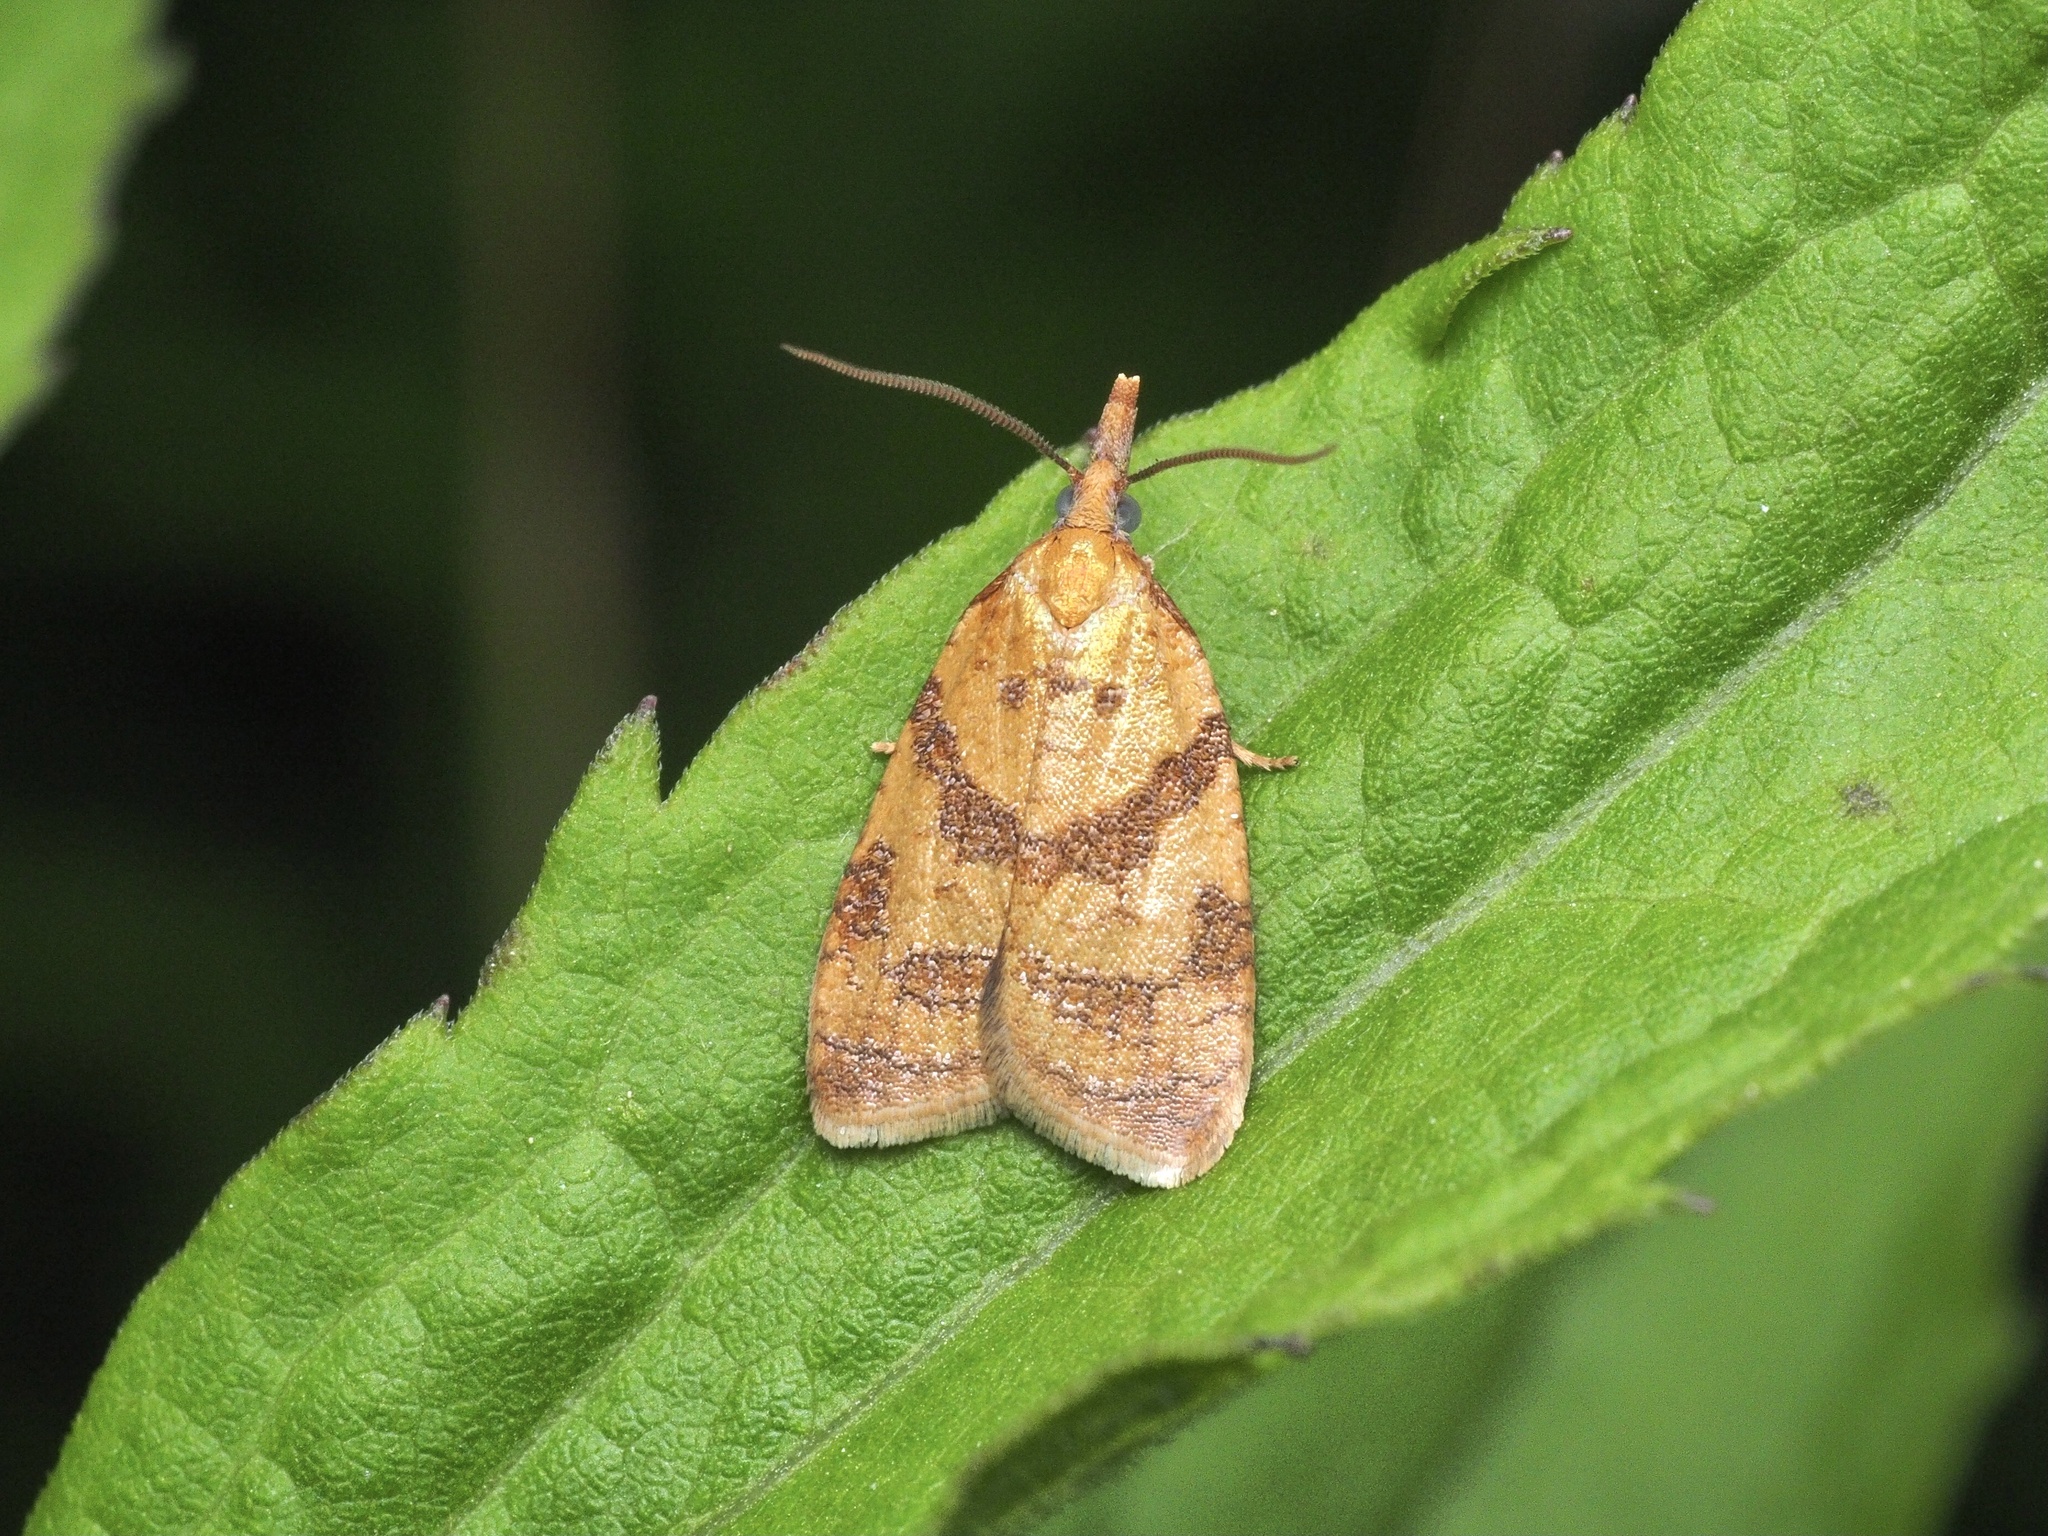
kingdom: Animalia
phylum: Arthropoda
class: Insecta
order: Lepidoptera
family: Tortricidae
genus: Sparganothis
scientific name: Sparganothis pilleriana
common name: Vine leaf-roller tortrix, long-nosed twist
